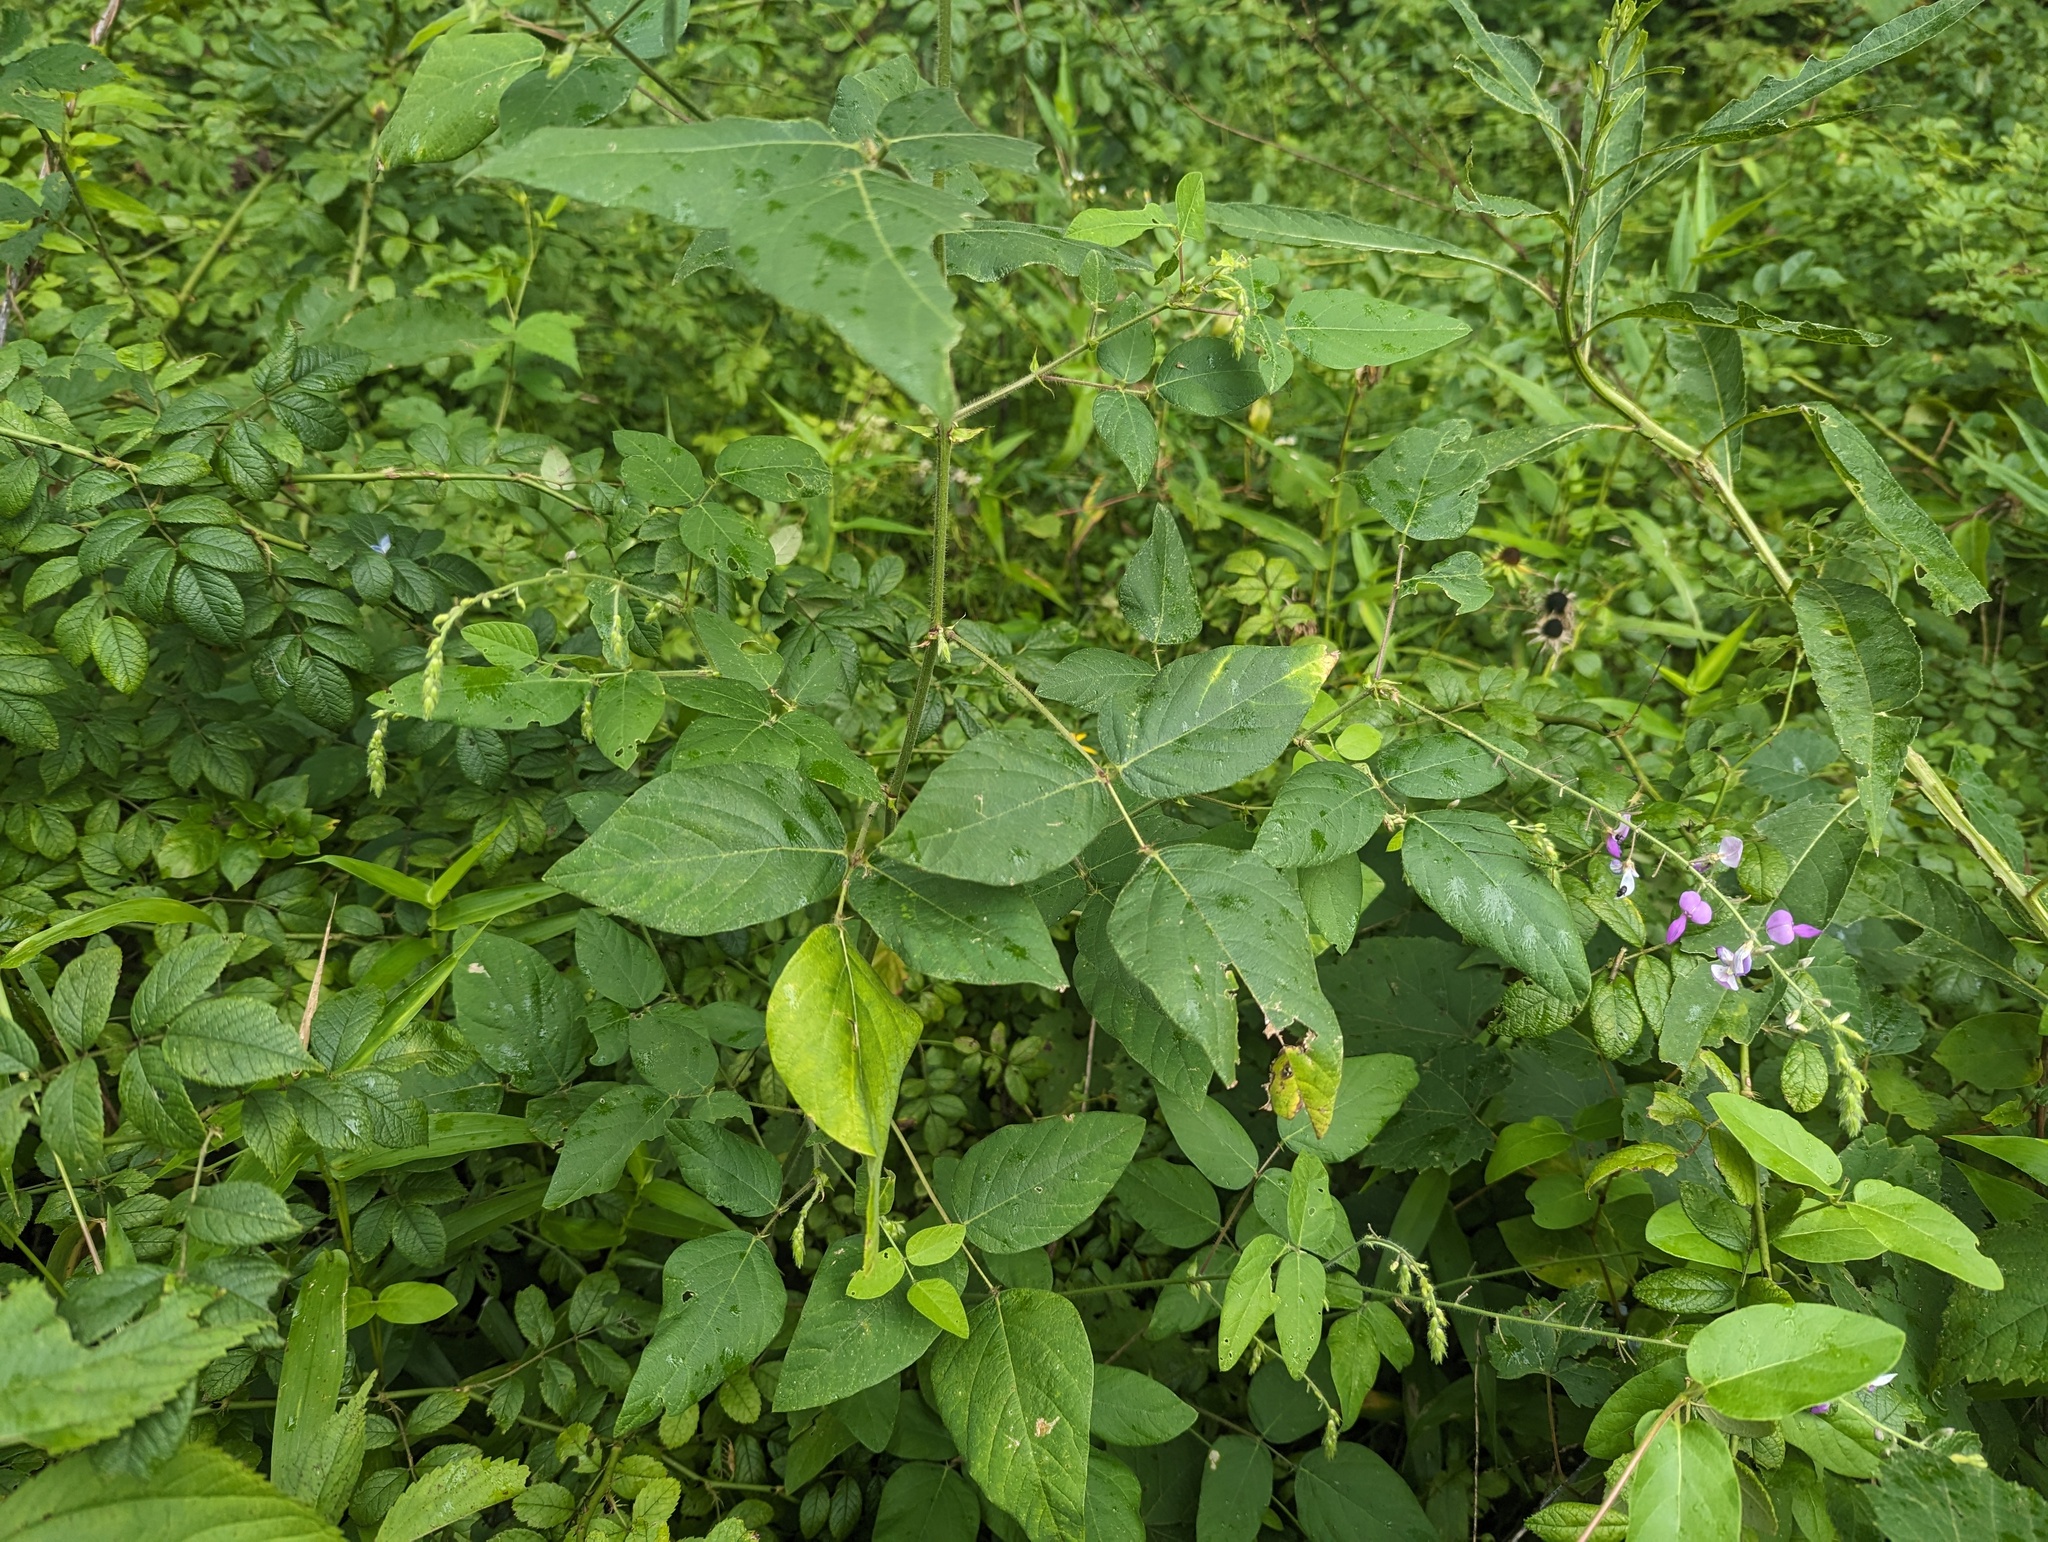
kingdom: Plantae
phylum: Tracheophyta
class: Magnoliopsida
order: Fabales
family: Fabaceae
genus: Desmodium
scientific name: Desmodium canescens
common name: Hoary tick-clover
